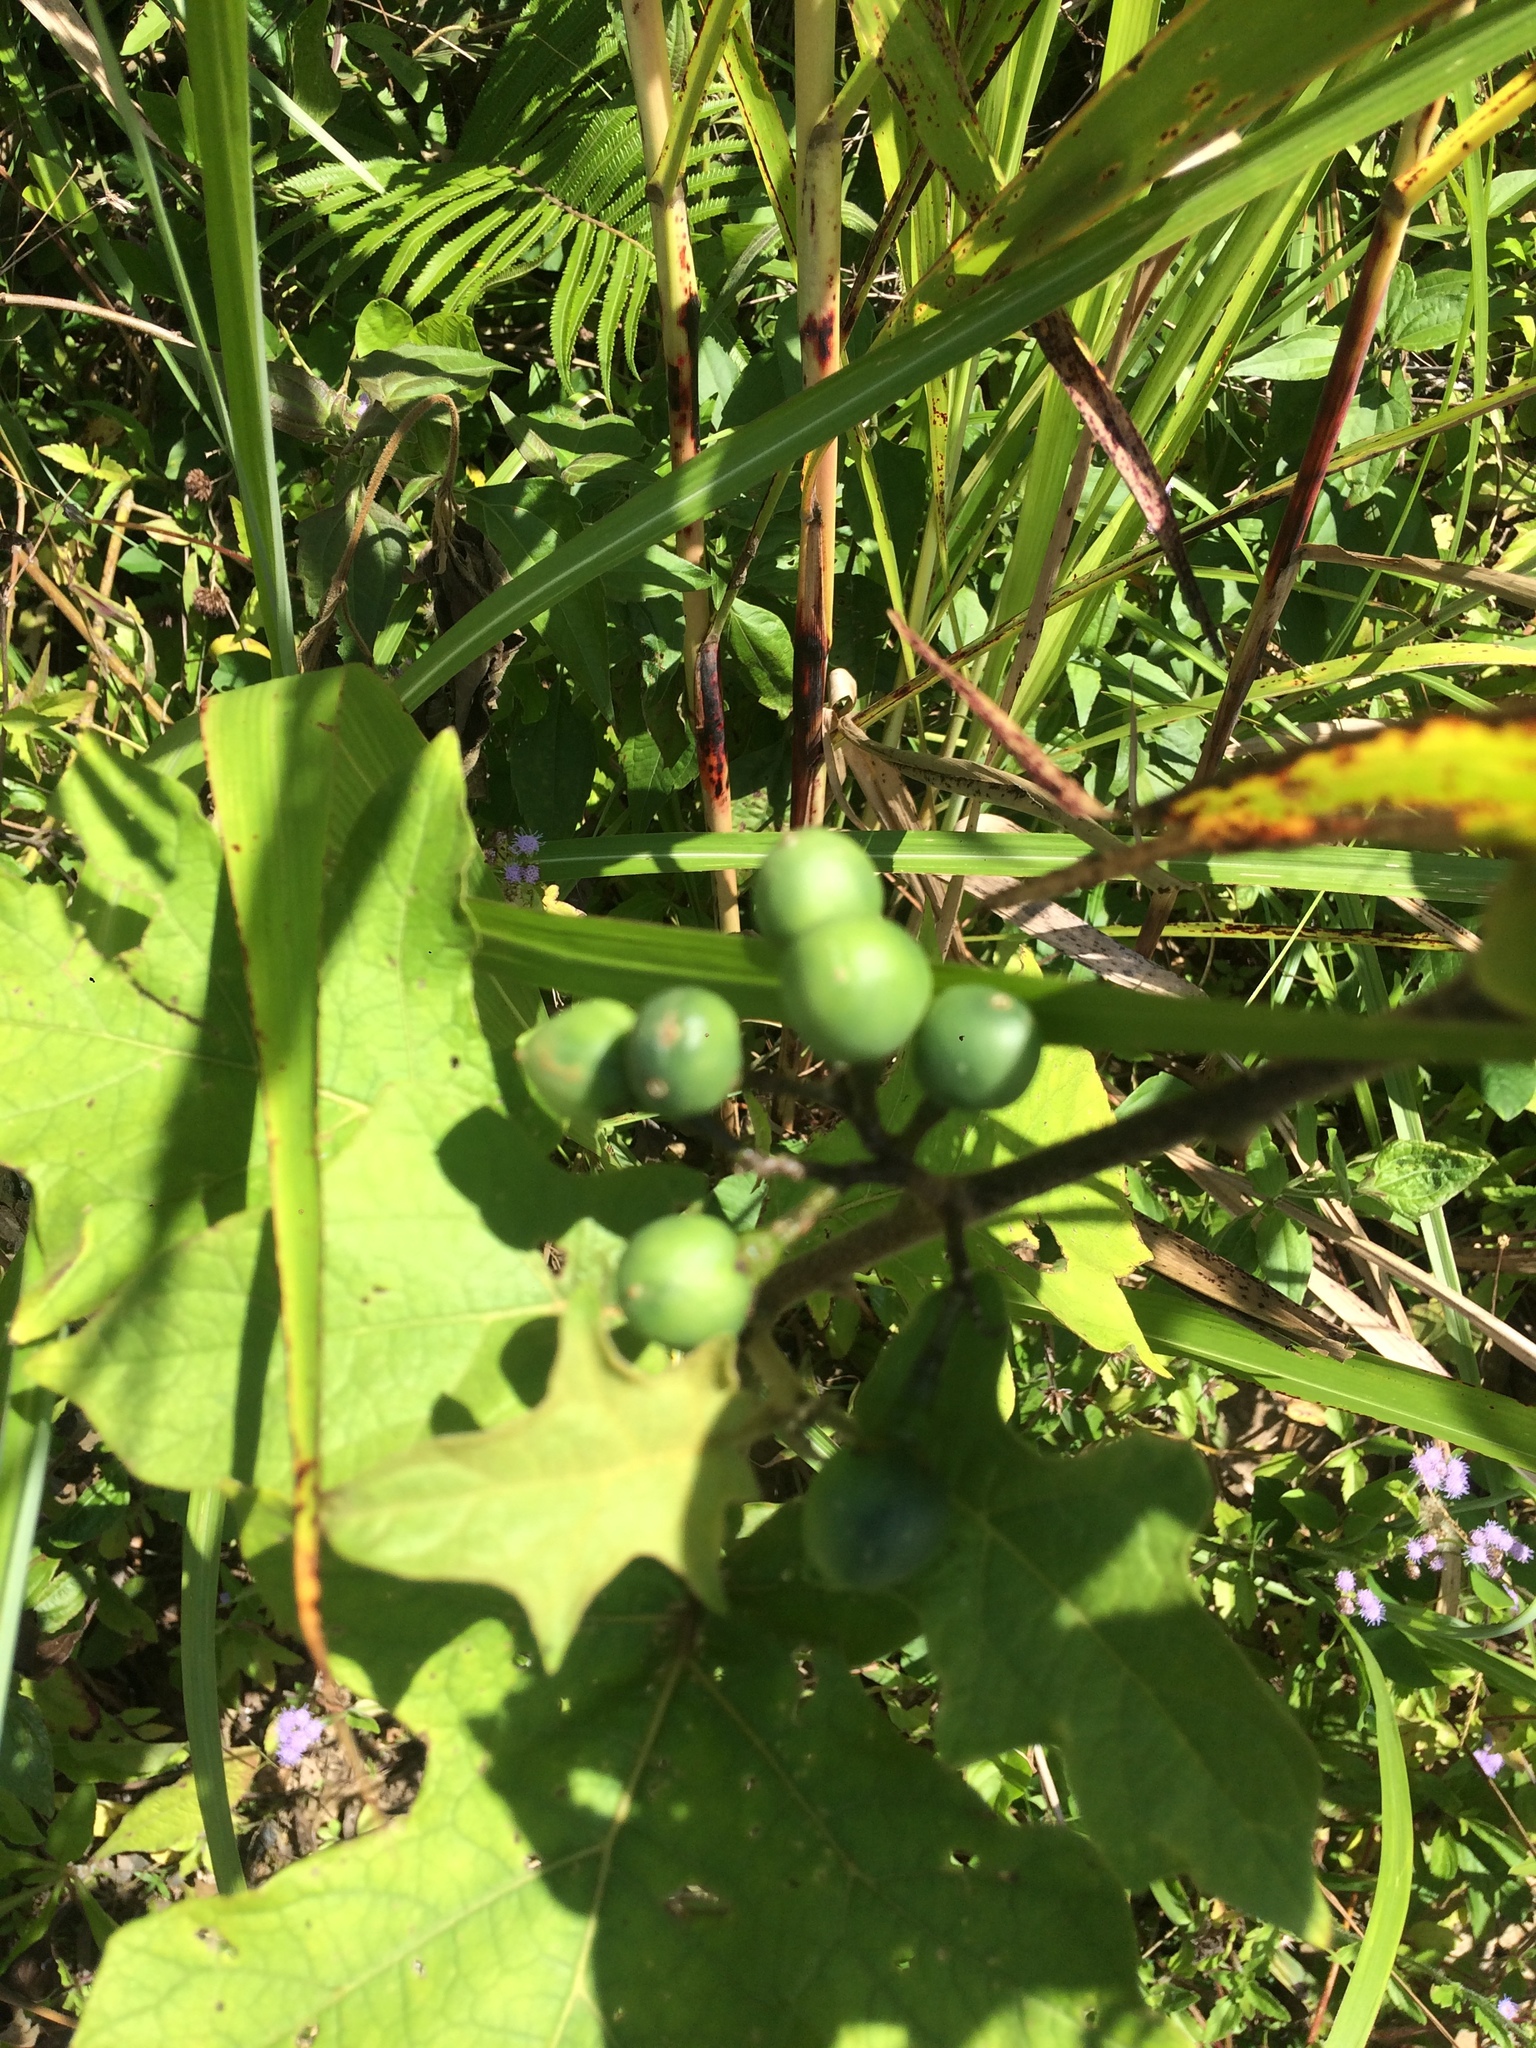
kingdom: Plantae
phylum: Tracheophyta
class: Magnoliopsida
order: Solanales
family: Solanaceae
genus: Solanum
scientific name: Solanum torvum
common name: Turkey berry
